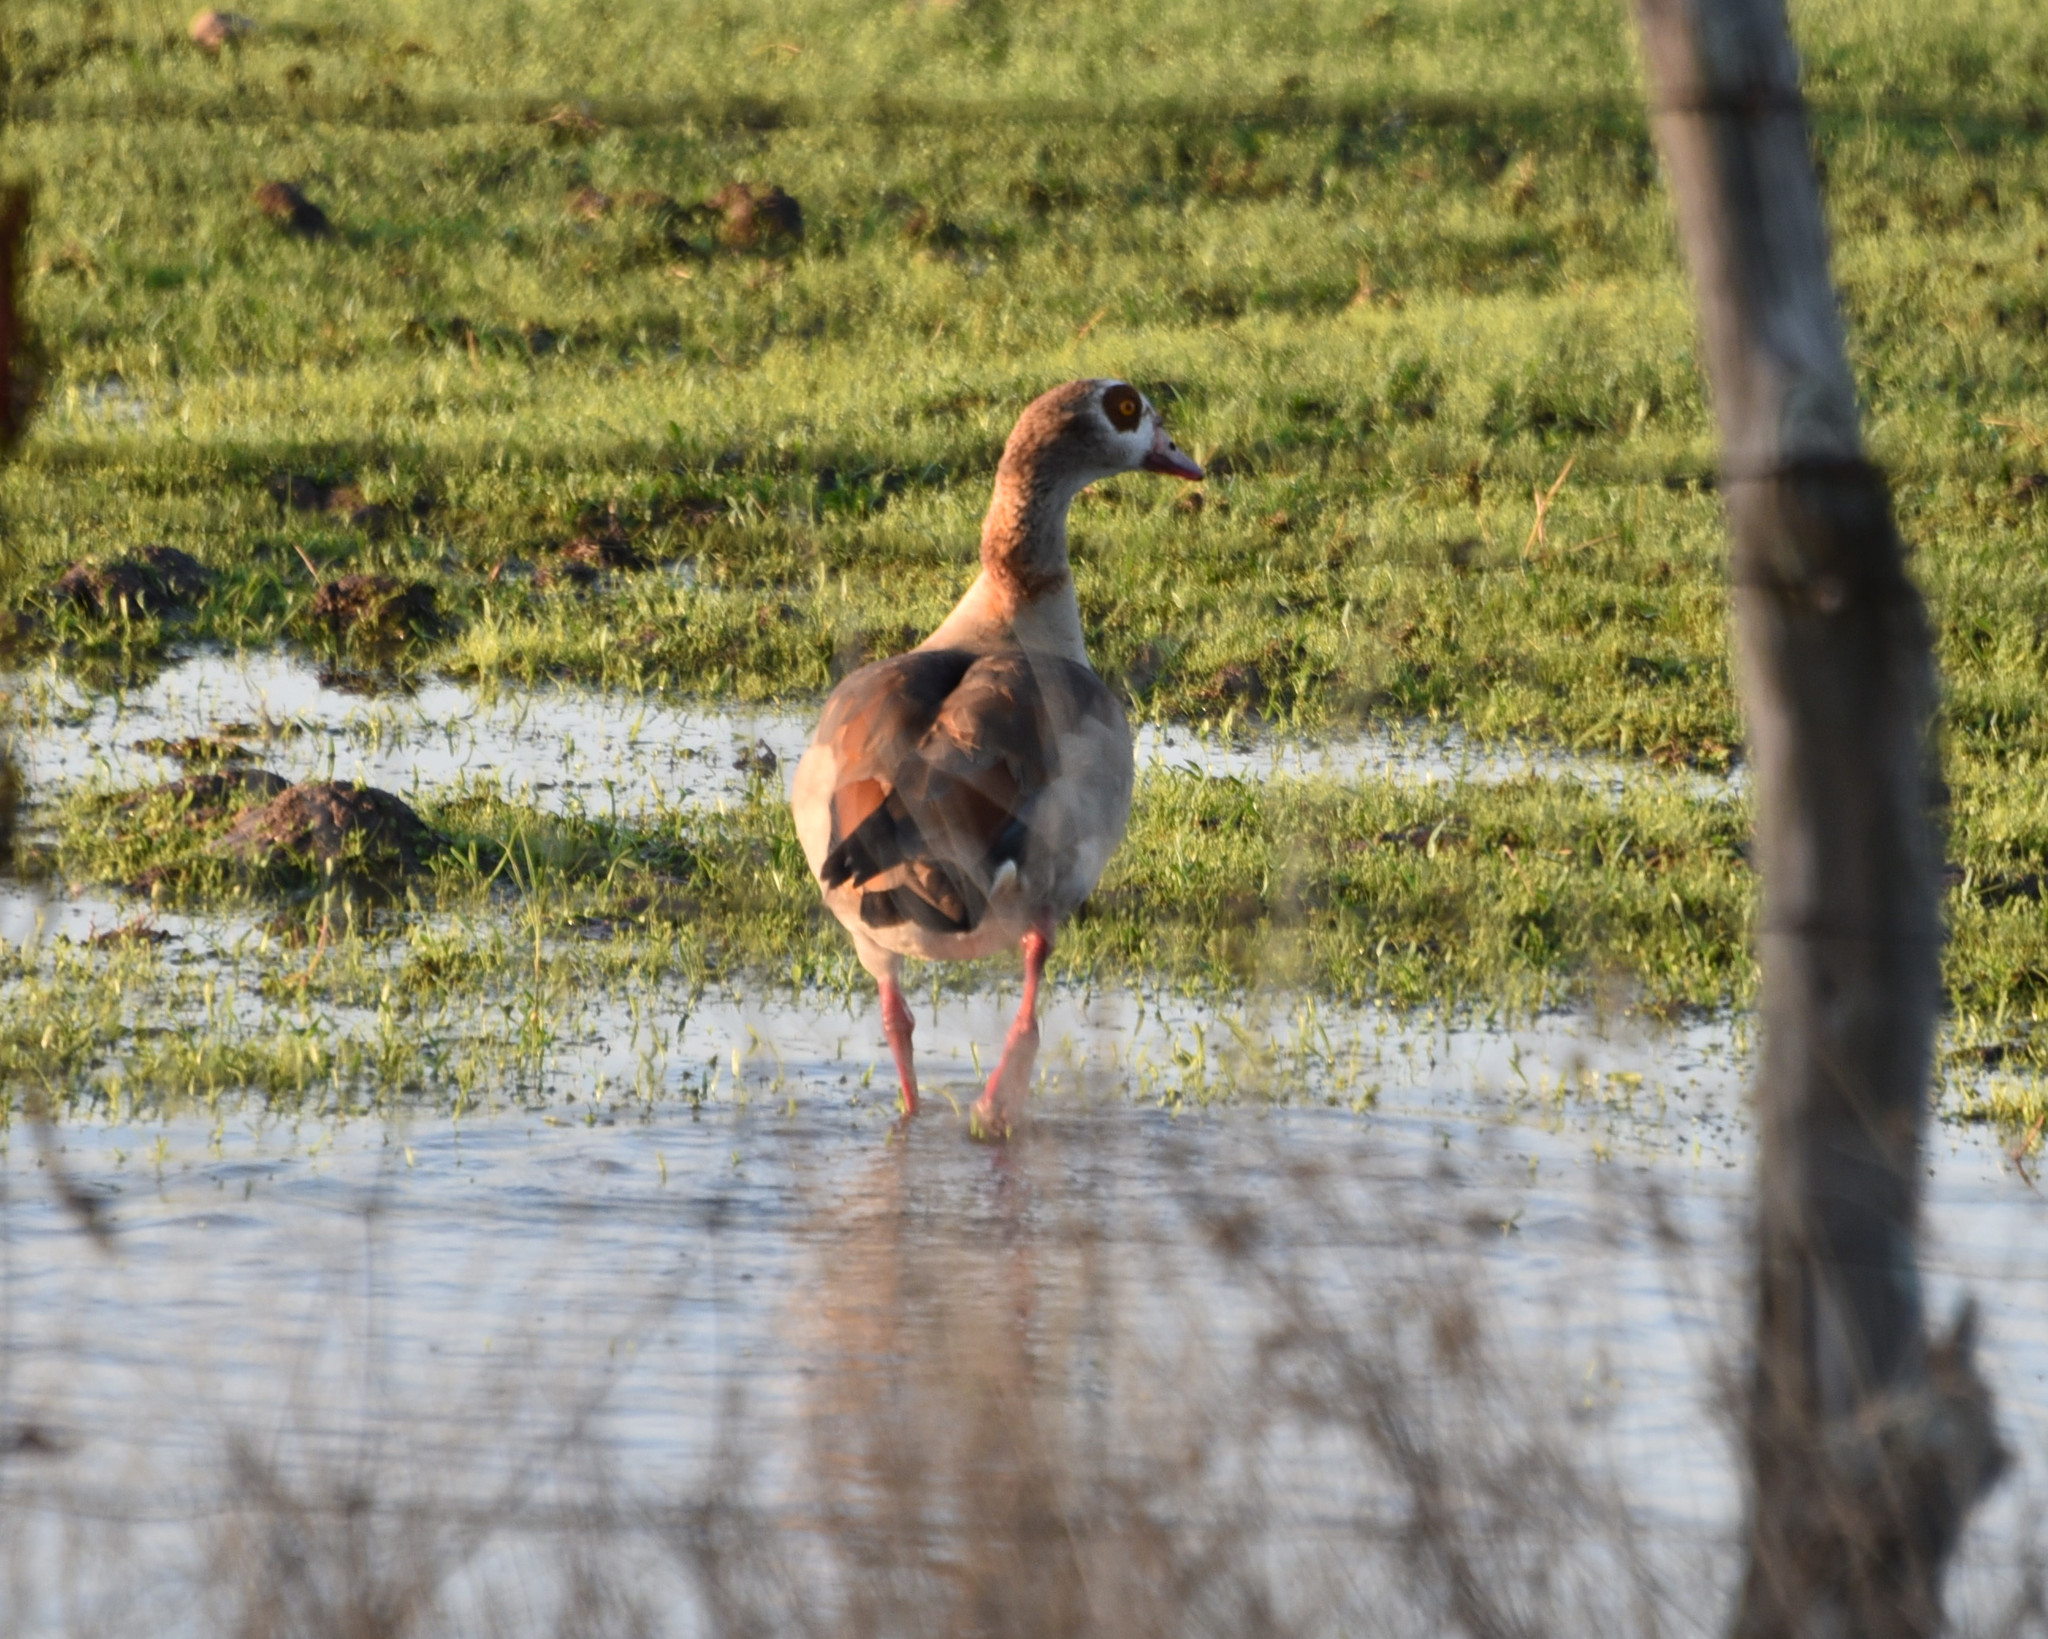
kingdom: Animalia
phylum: Chordata
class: Aves
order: Anseriformes
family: Anatidae
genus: Alopochen
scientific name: Alopochen aegyptiaca
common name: Egyptian goose
